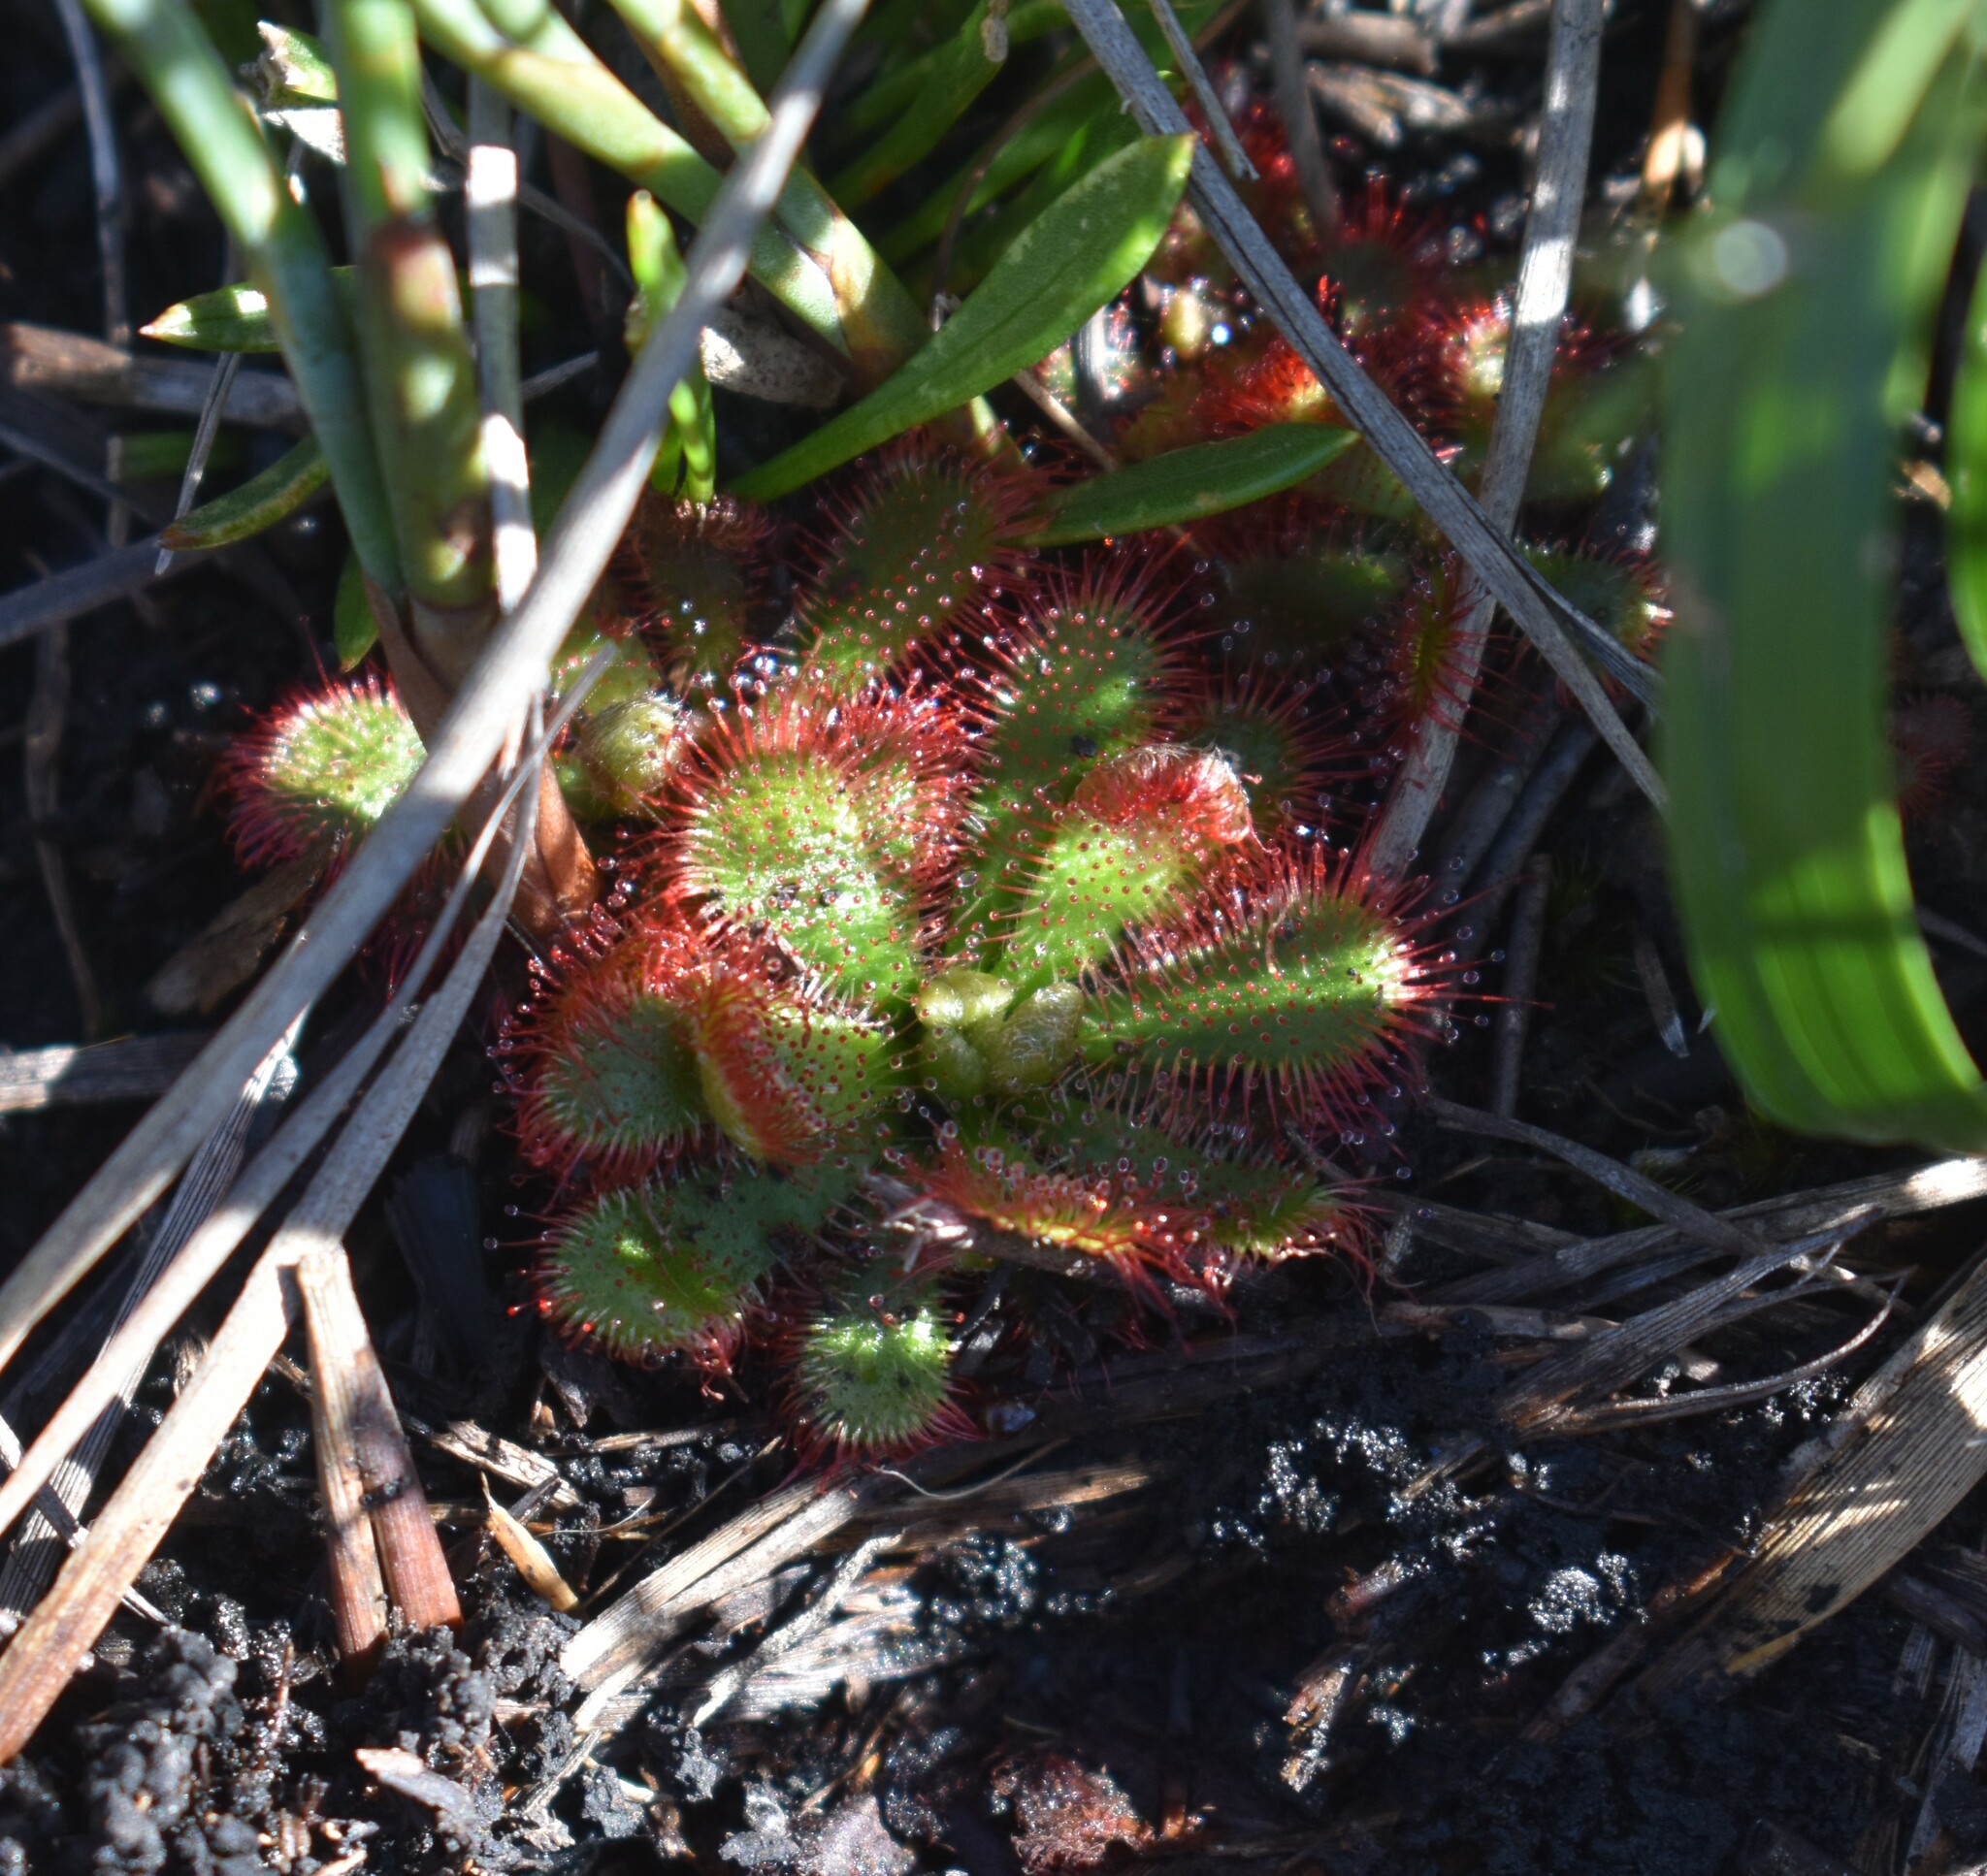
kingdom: Plantae
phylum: Tracheophyta
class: Magnoliopsida
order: Caryophyllales
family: Droseraceae
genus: Drosera
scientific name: Drosera aliciae
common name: Alice sundew
